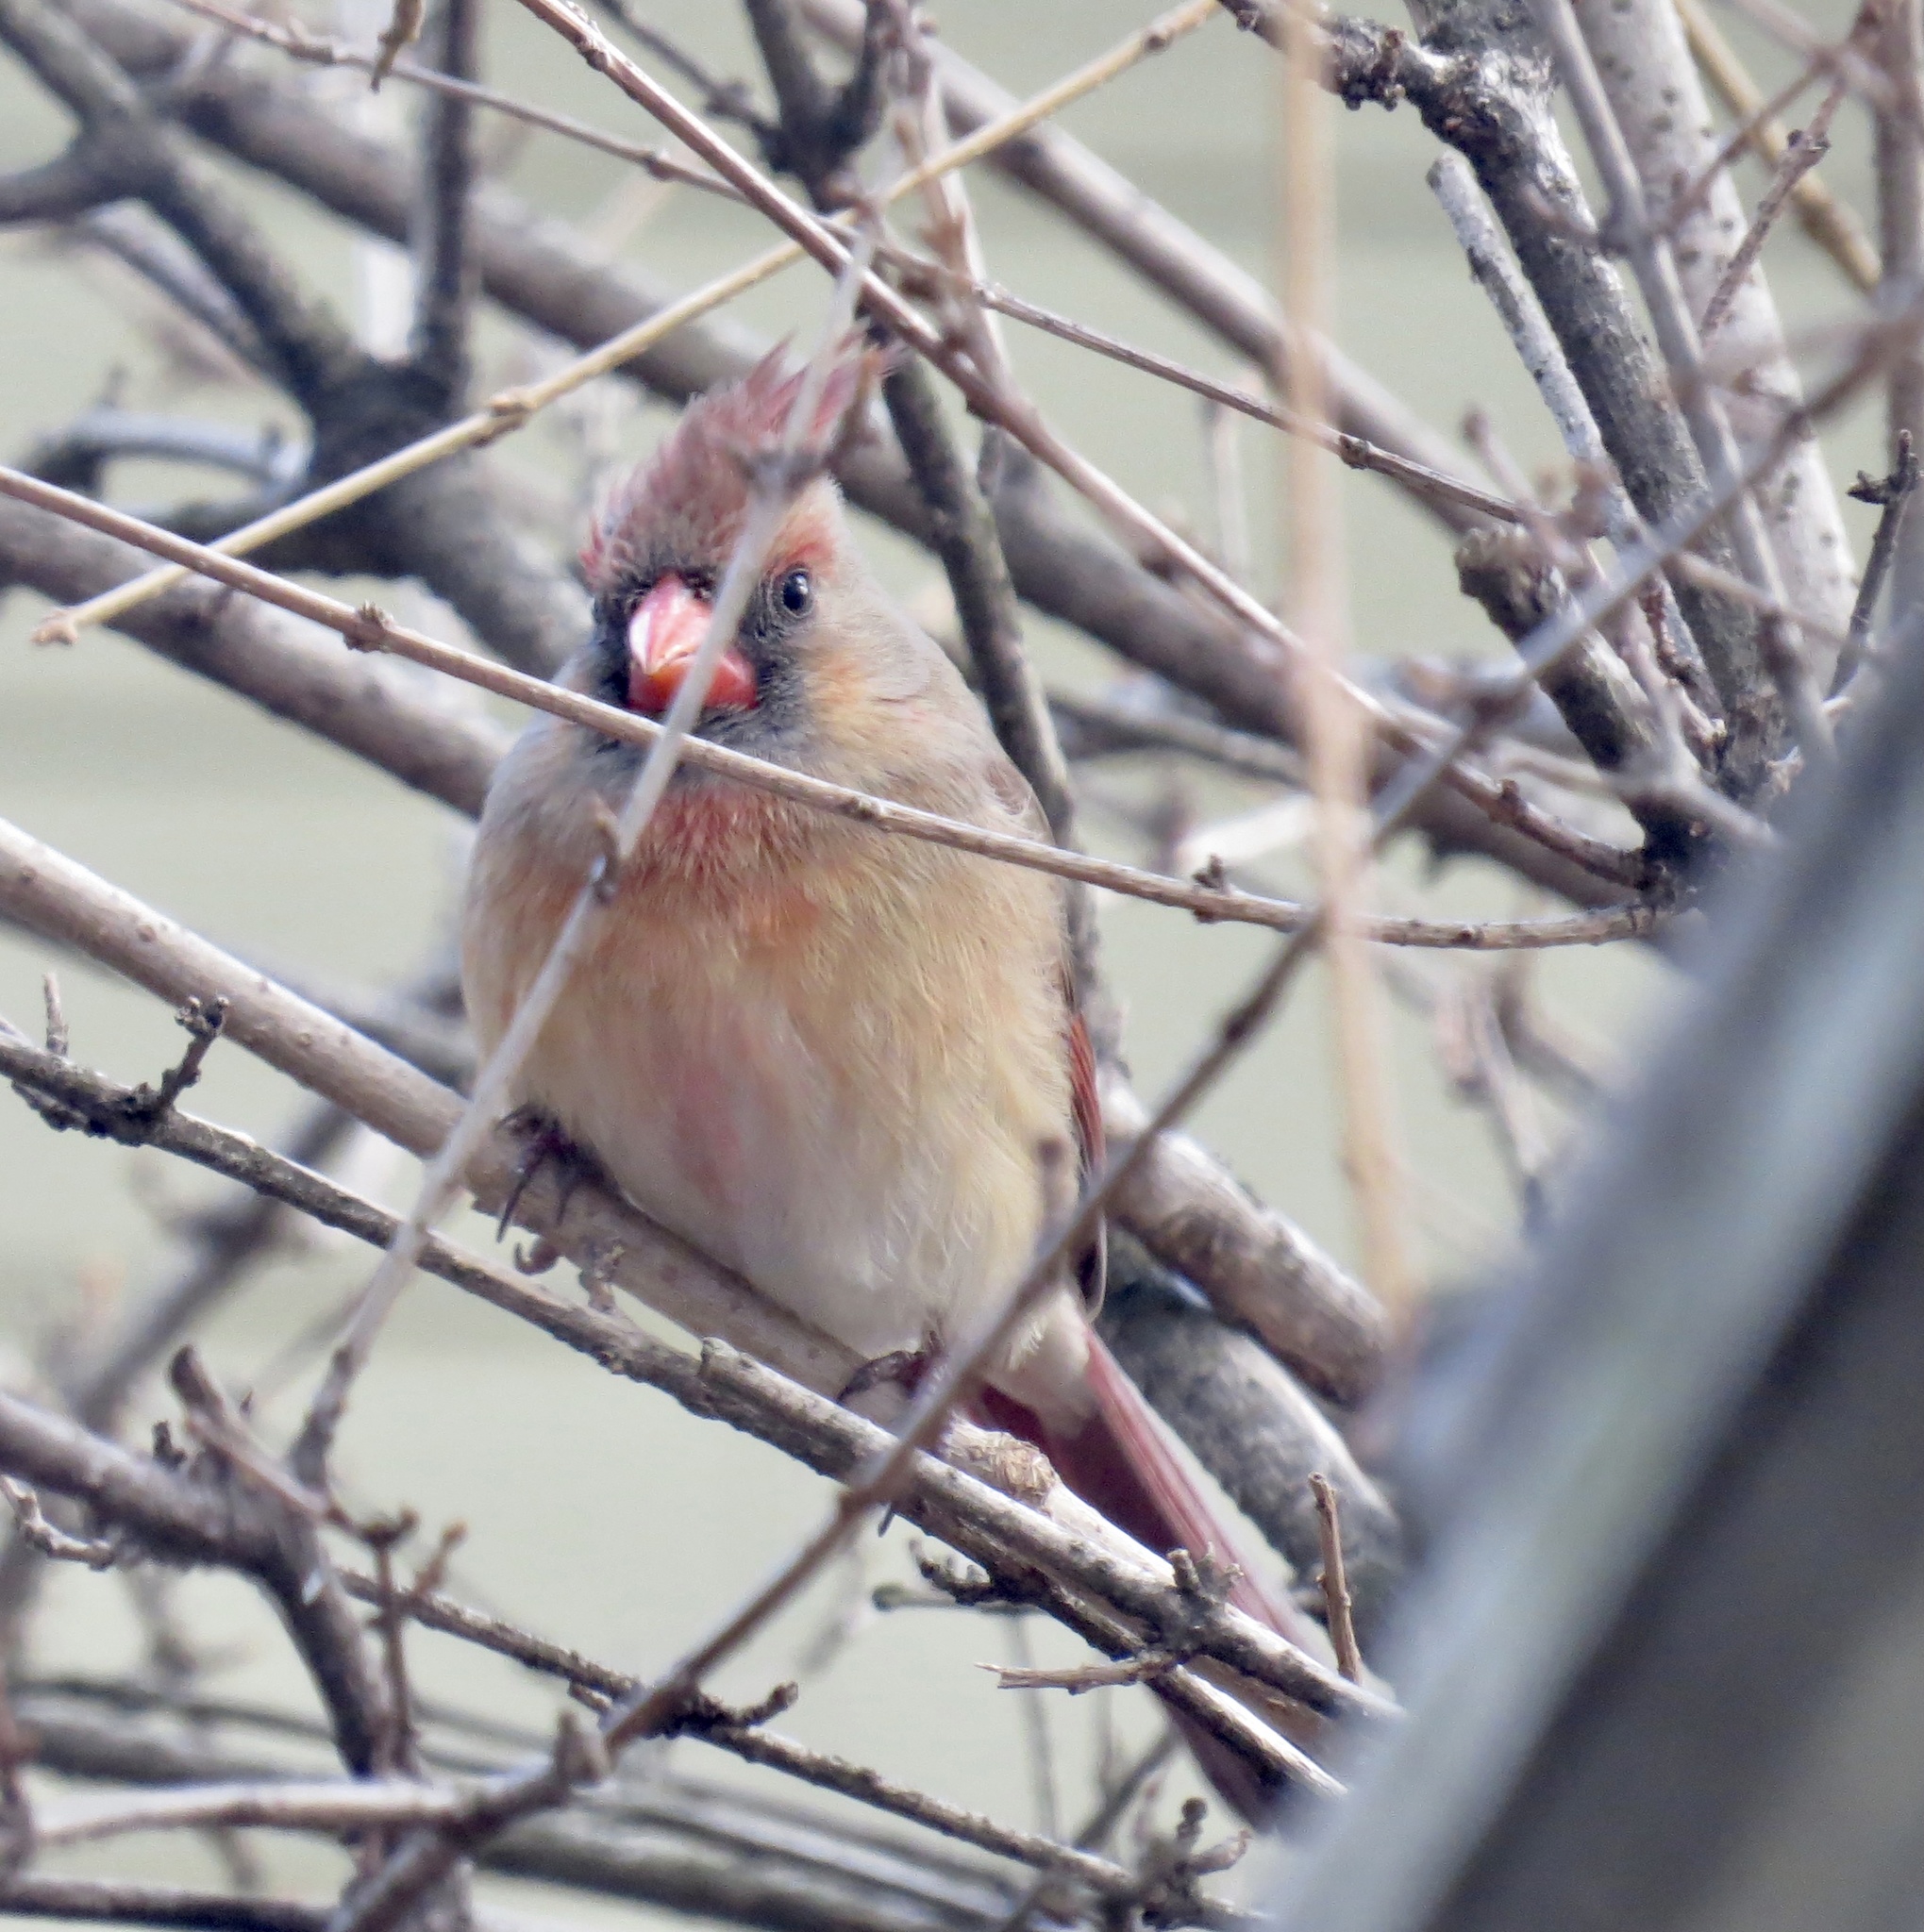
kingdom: Animalia
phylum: Chordata
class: Aves
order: Passeriformes
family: Cardinalidae
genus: Cardinalis
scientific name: Cardinalis cardinalis
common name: Northern cardinal
